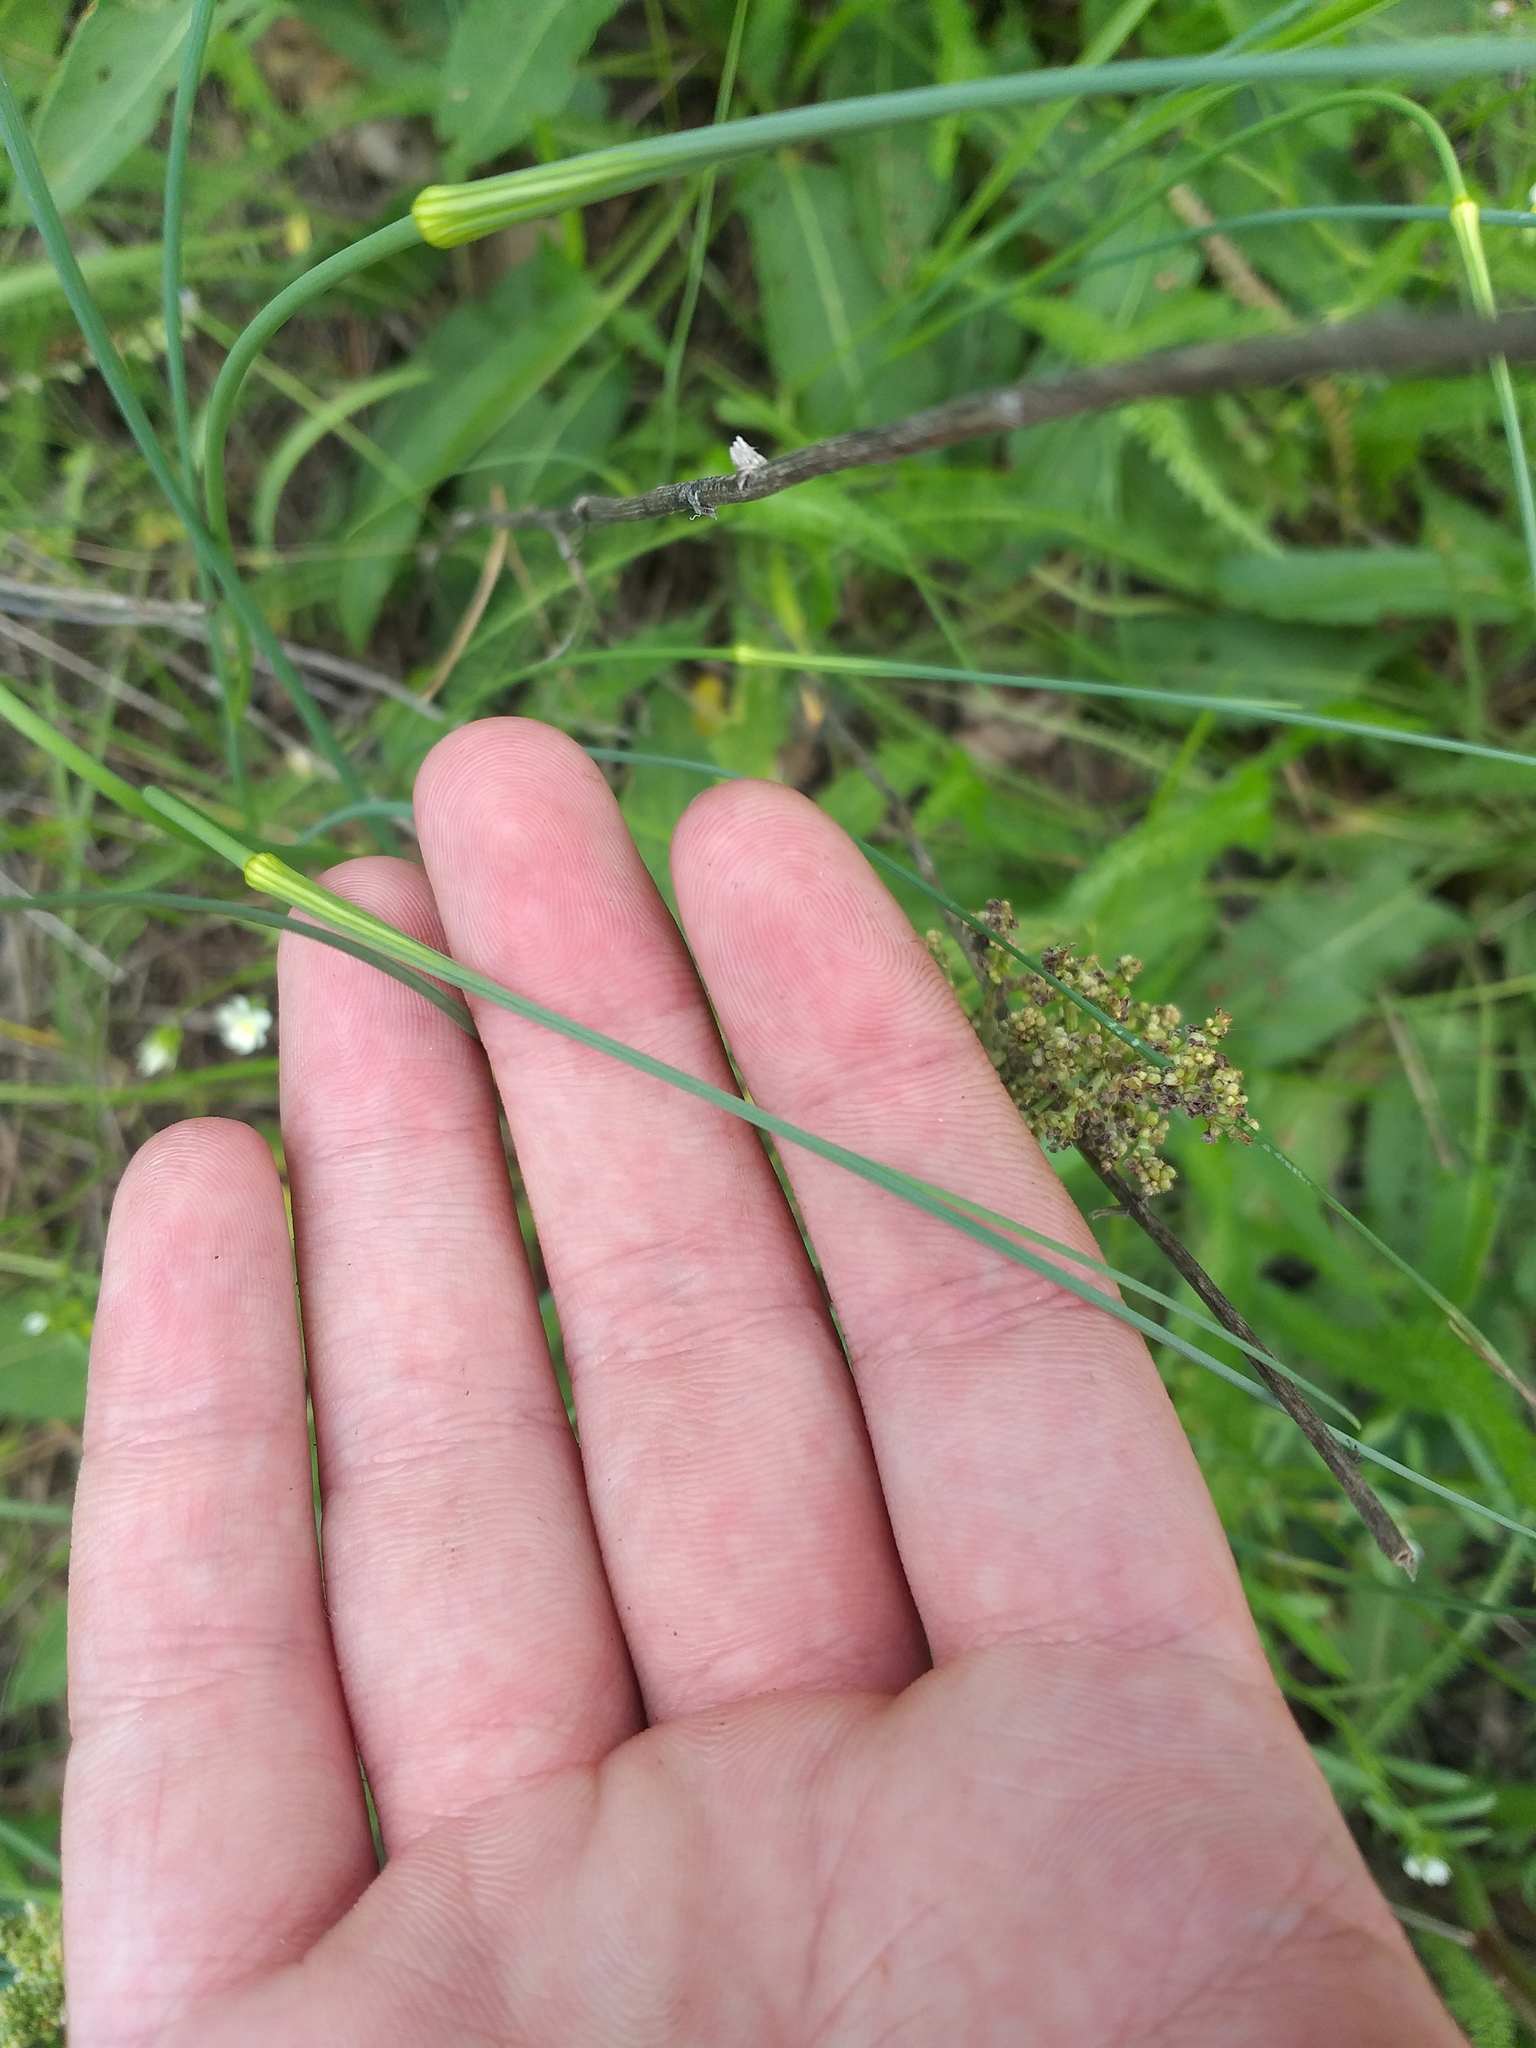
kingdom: Plantae
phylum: Tracheophyta
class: Liliopsida
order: Asparagales
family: Amaryllidaceae
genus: Allium
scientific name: Allium oleraceum
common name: Field garlic
